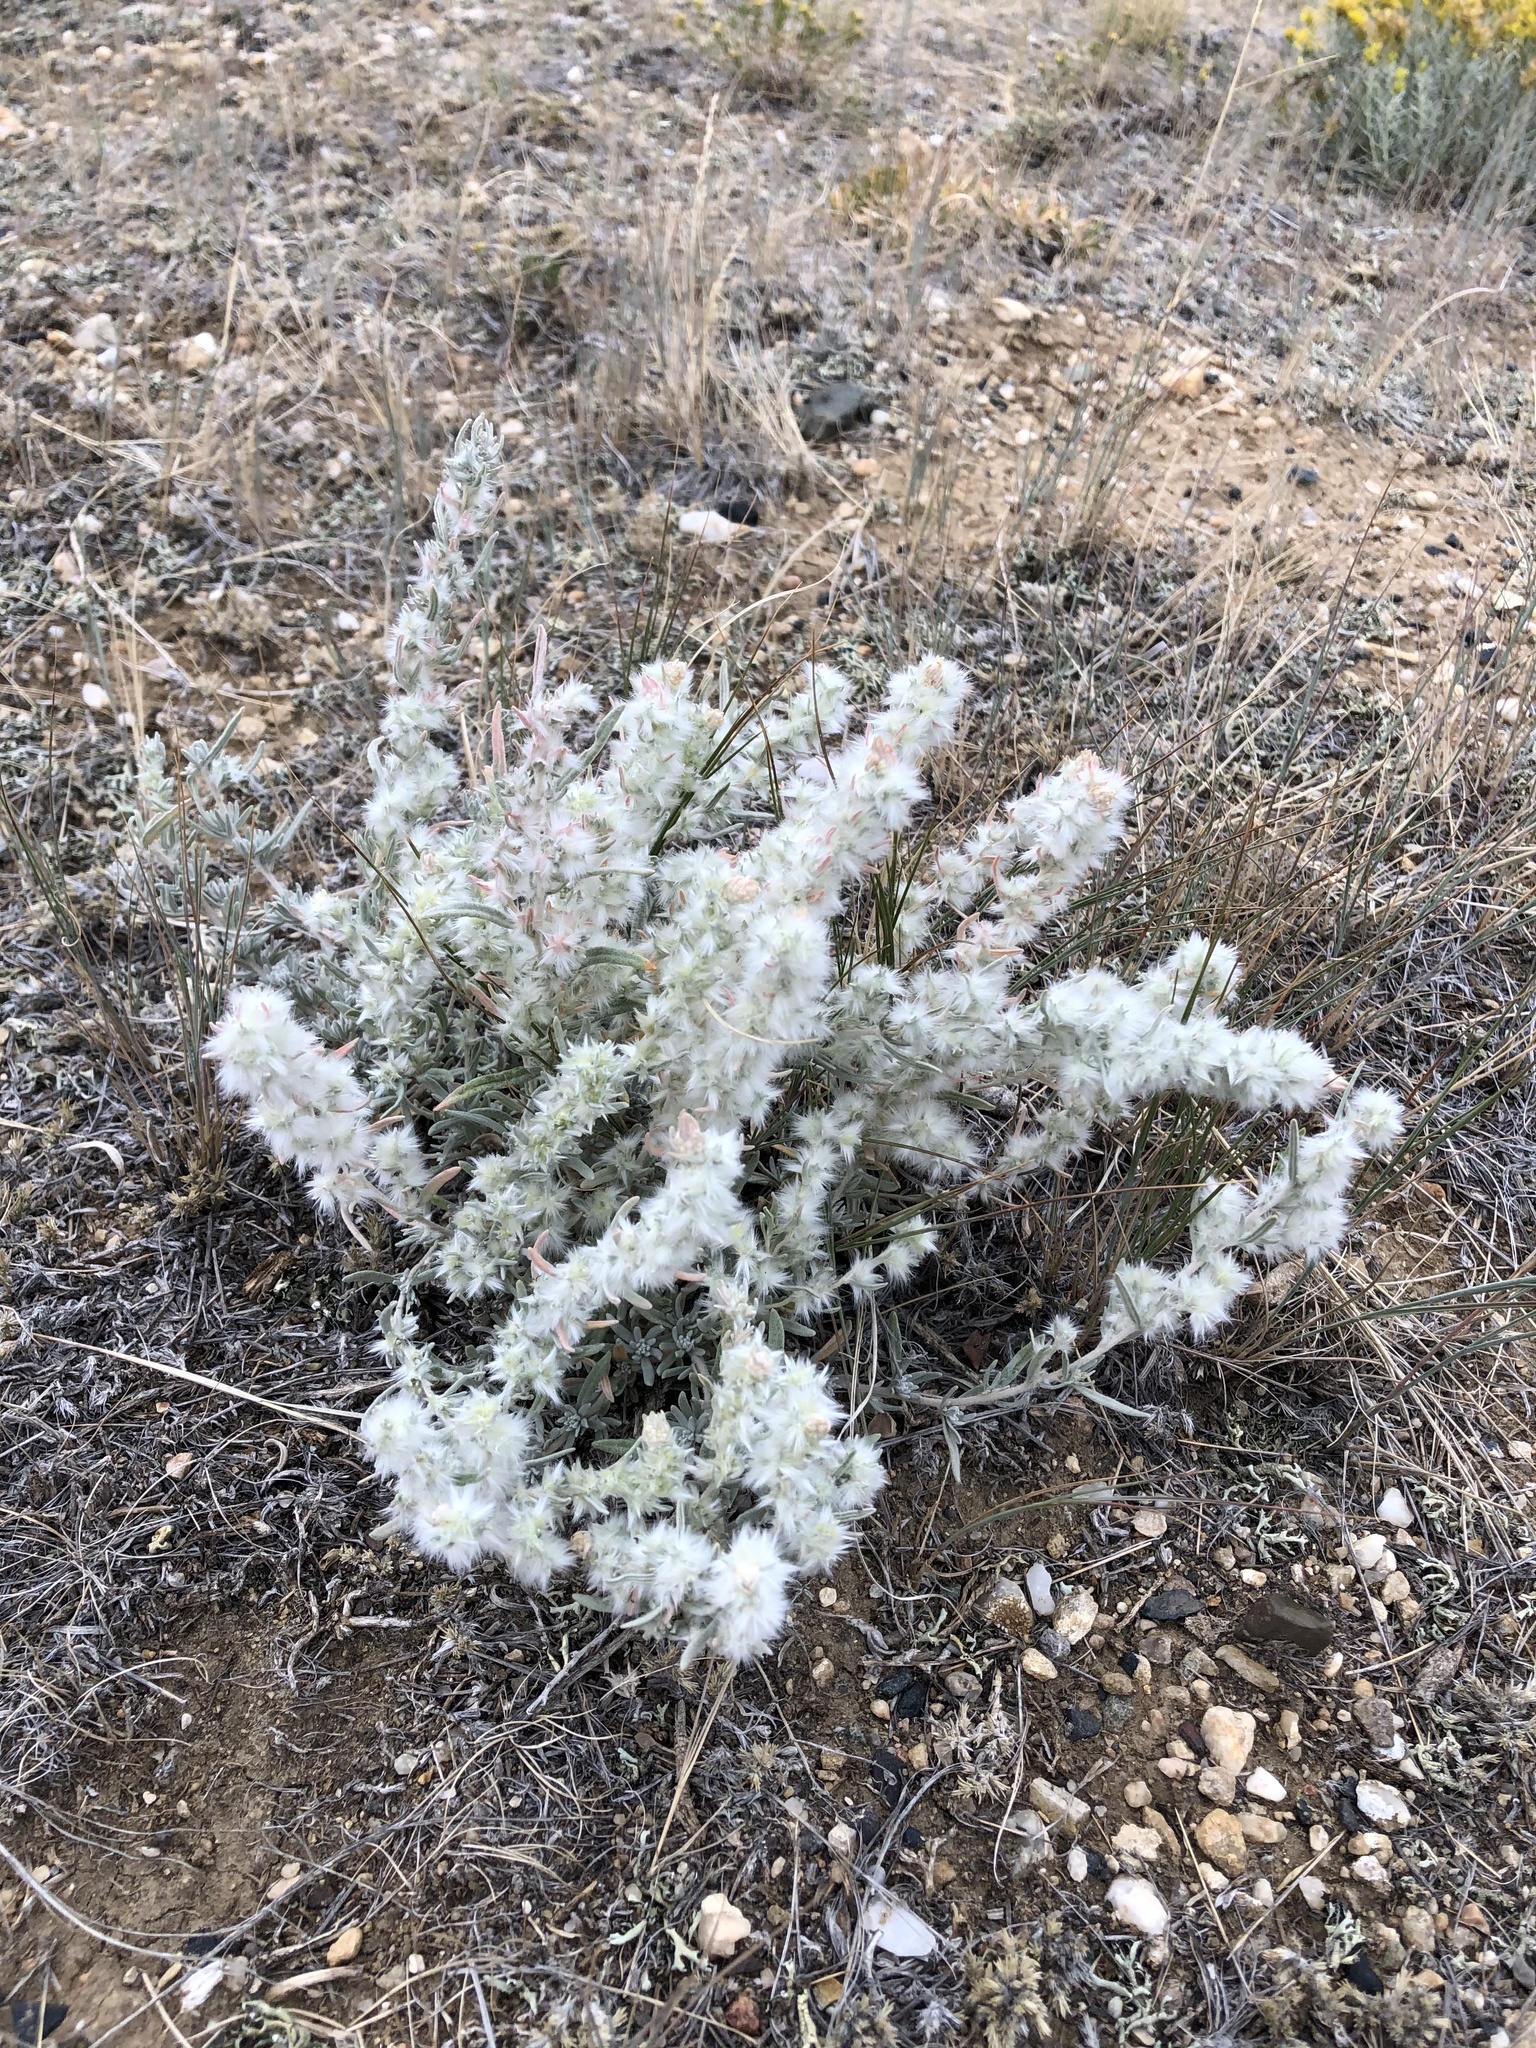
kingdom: Plantae
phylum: Tracheophyta
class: Magnoliopsida
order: Caryophyllales
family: Amaranthaceae
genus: Krascheninnikovia
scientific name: Krascheninnikovia lanata
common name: Winterfat
